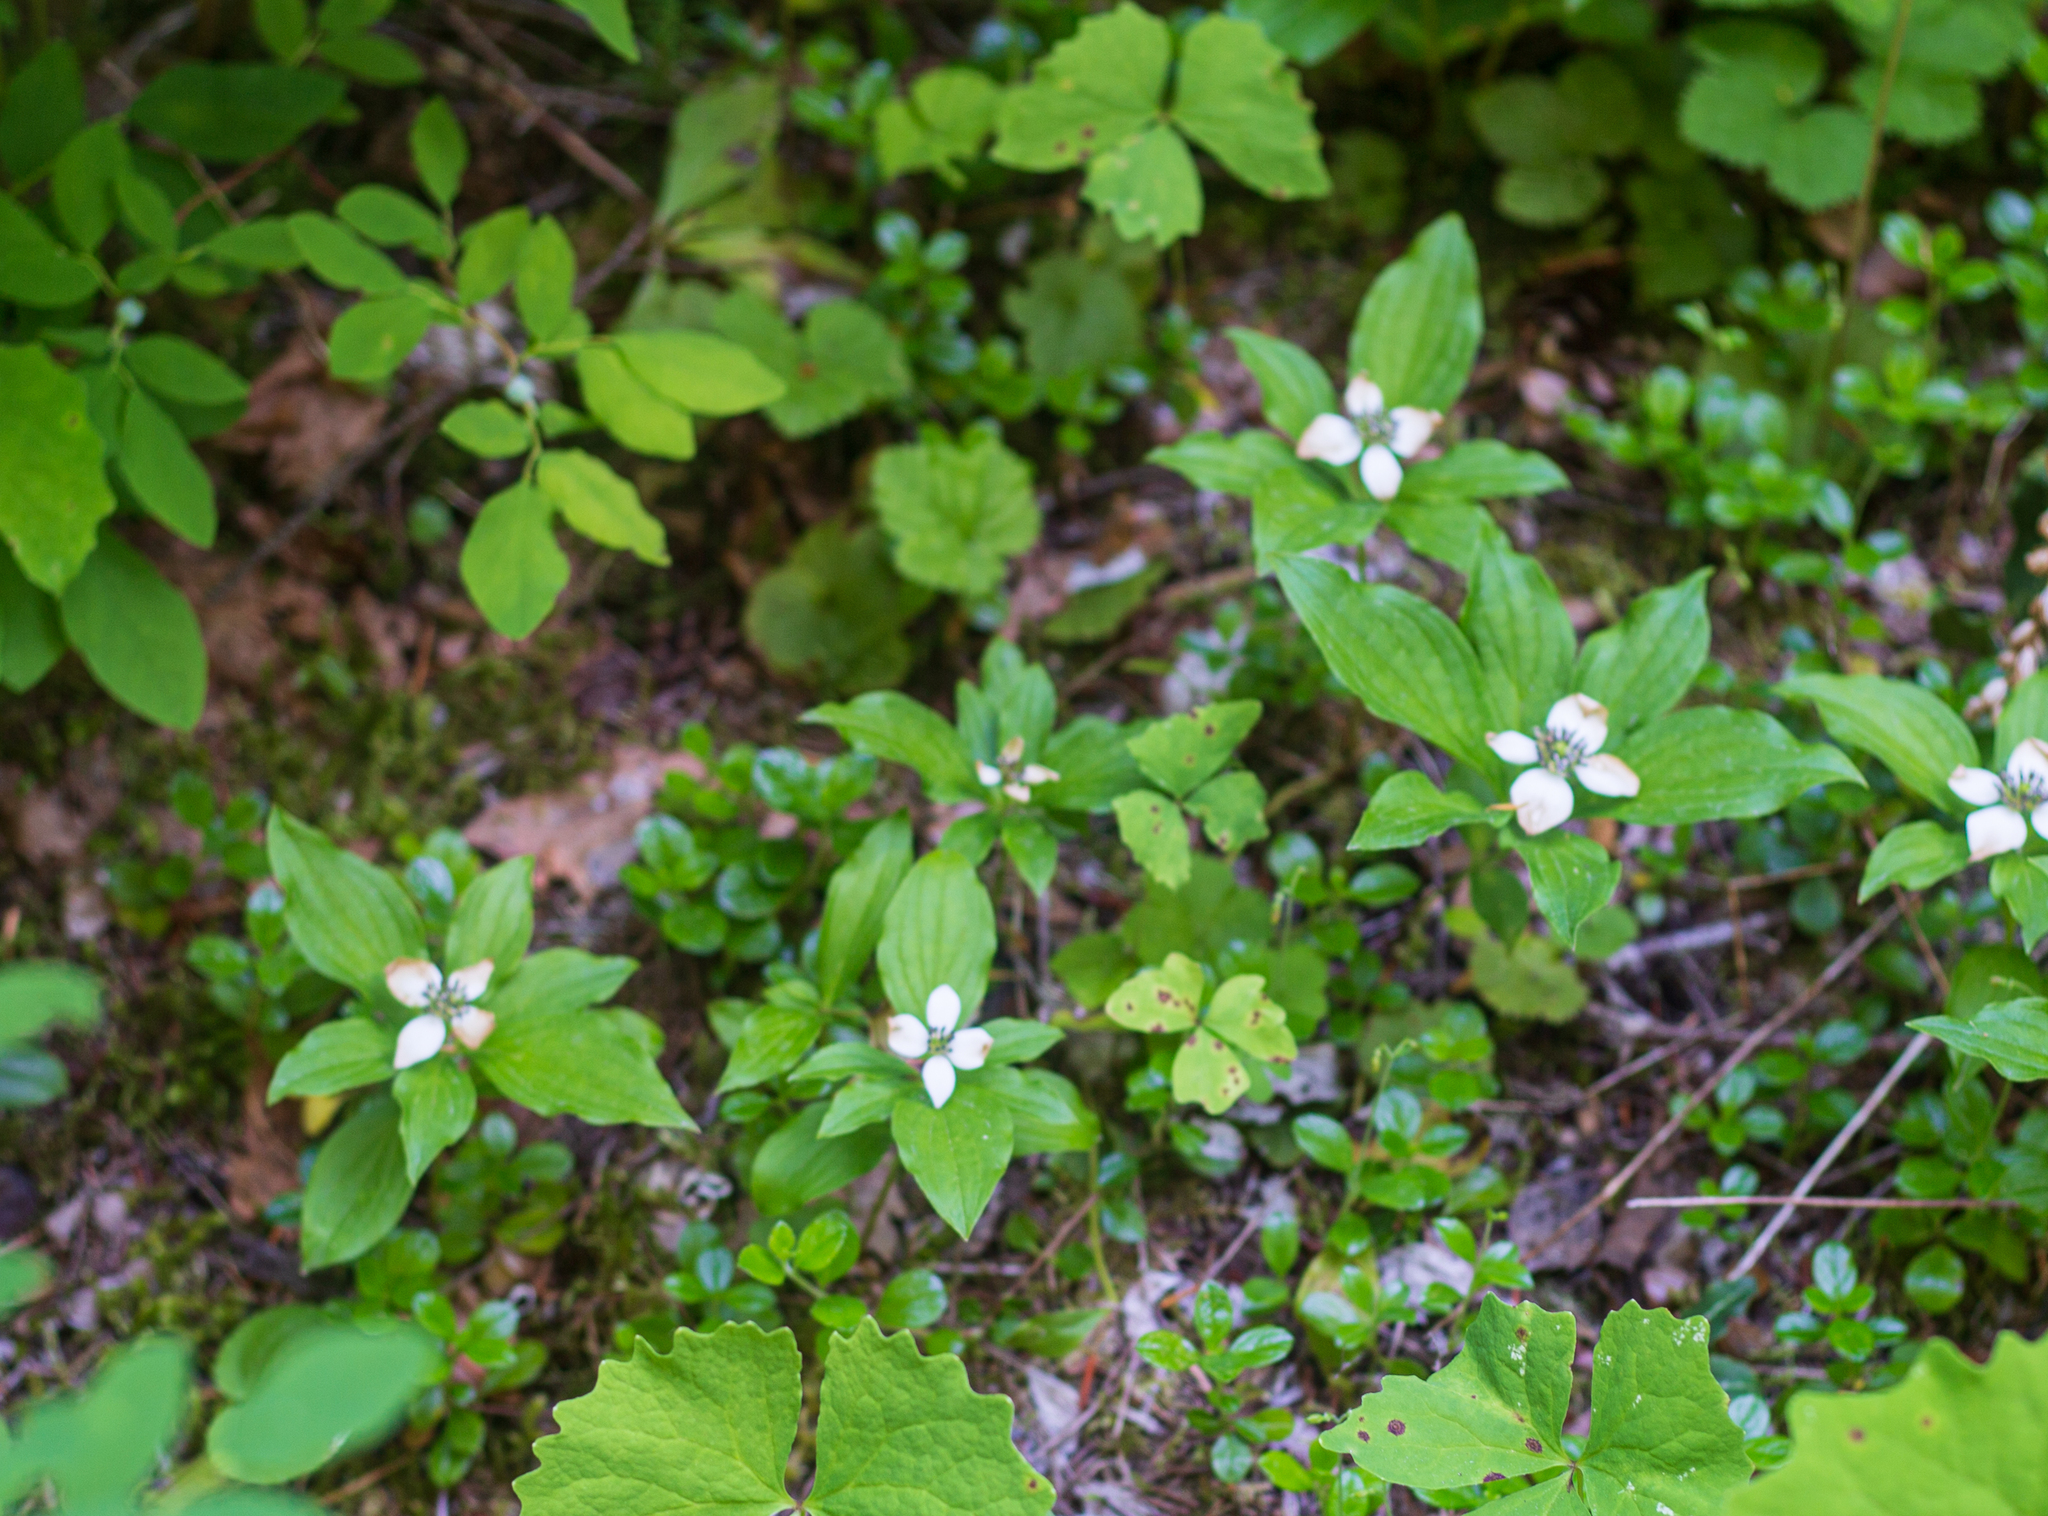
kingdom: Plantae
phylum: Tracheophyta
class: Magnoliopsida
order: Cornales
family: Cornaceae
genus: Cornus
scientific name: Cornus unalaschkensis
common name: Alaska bunchberry
